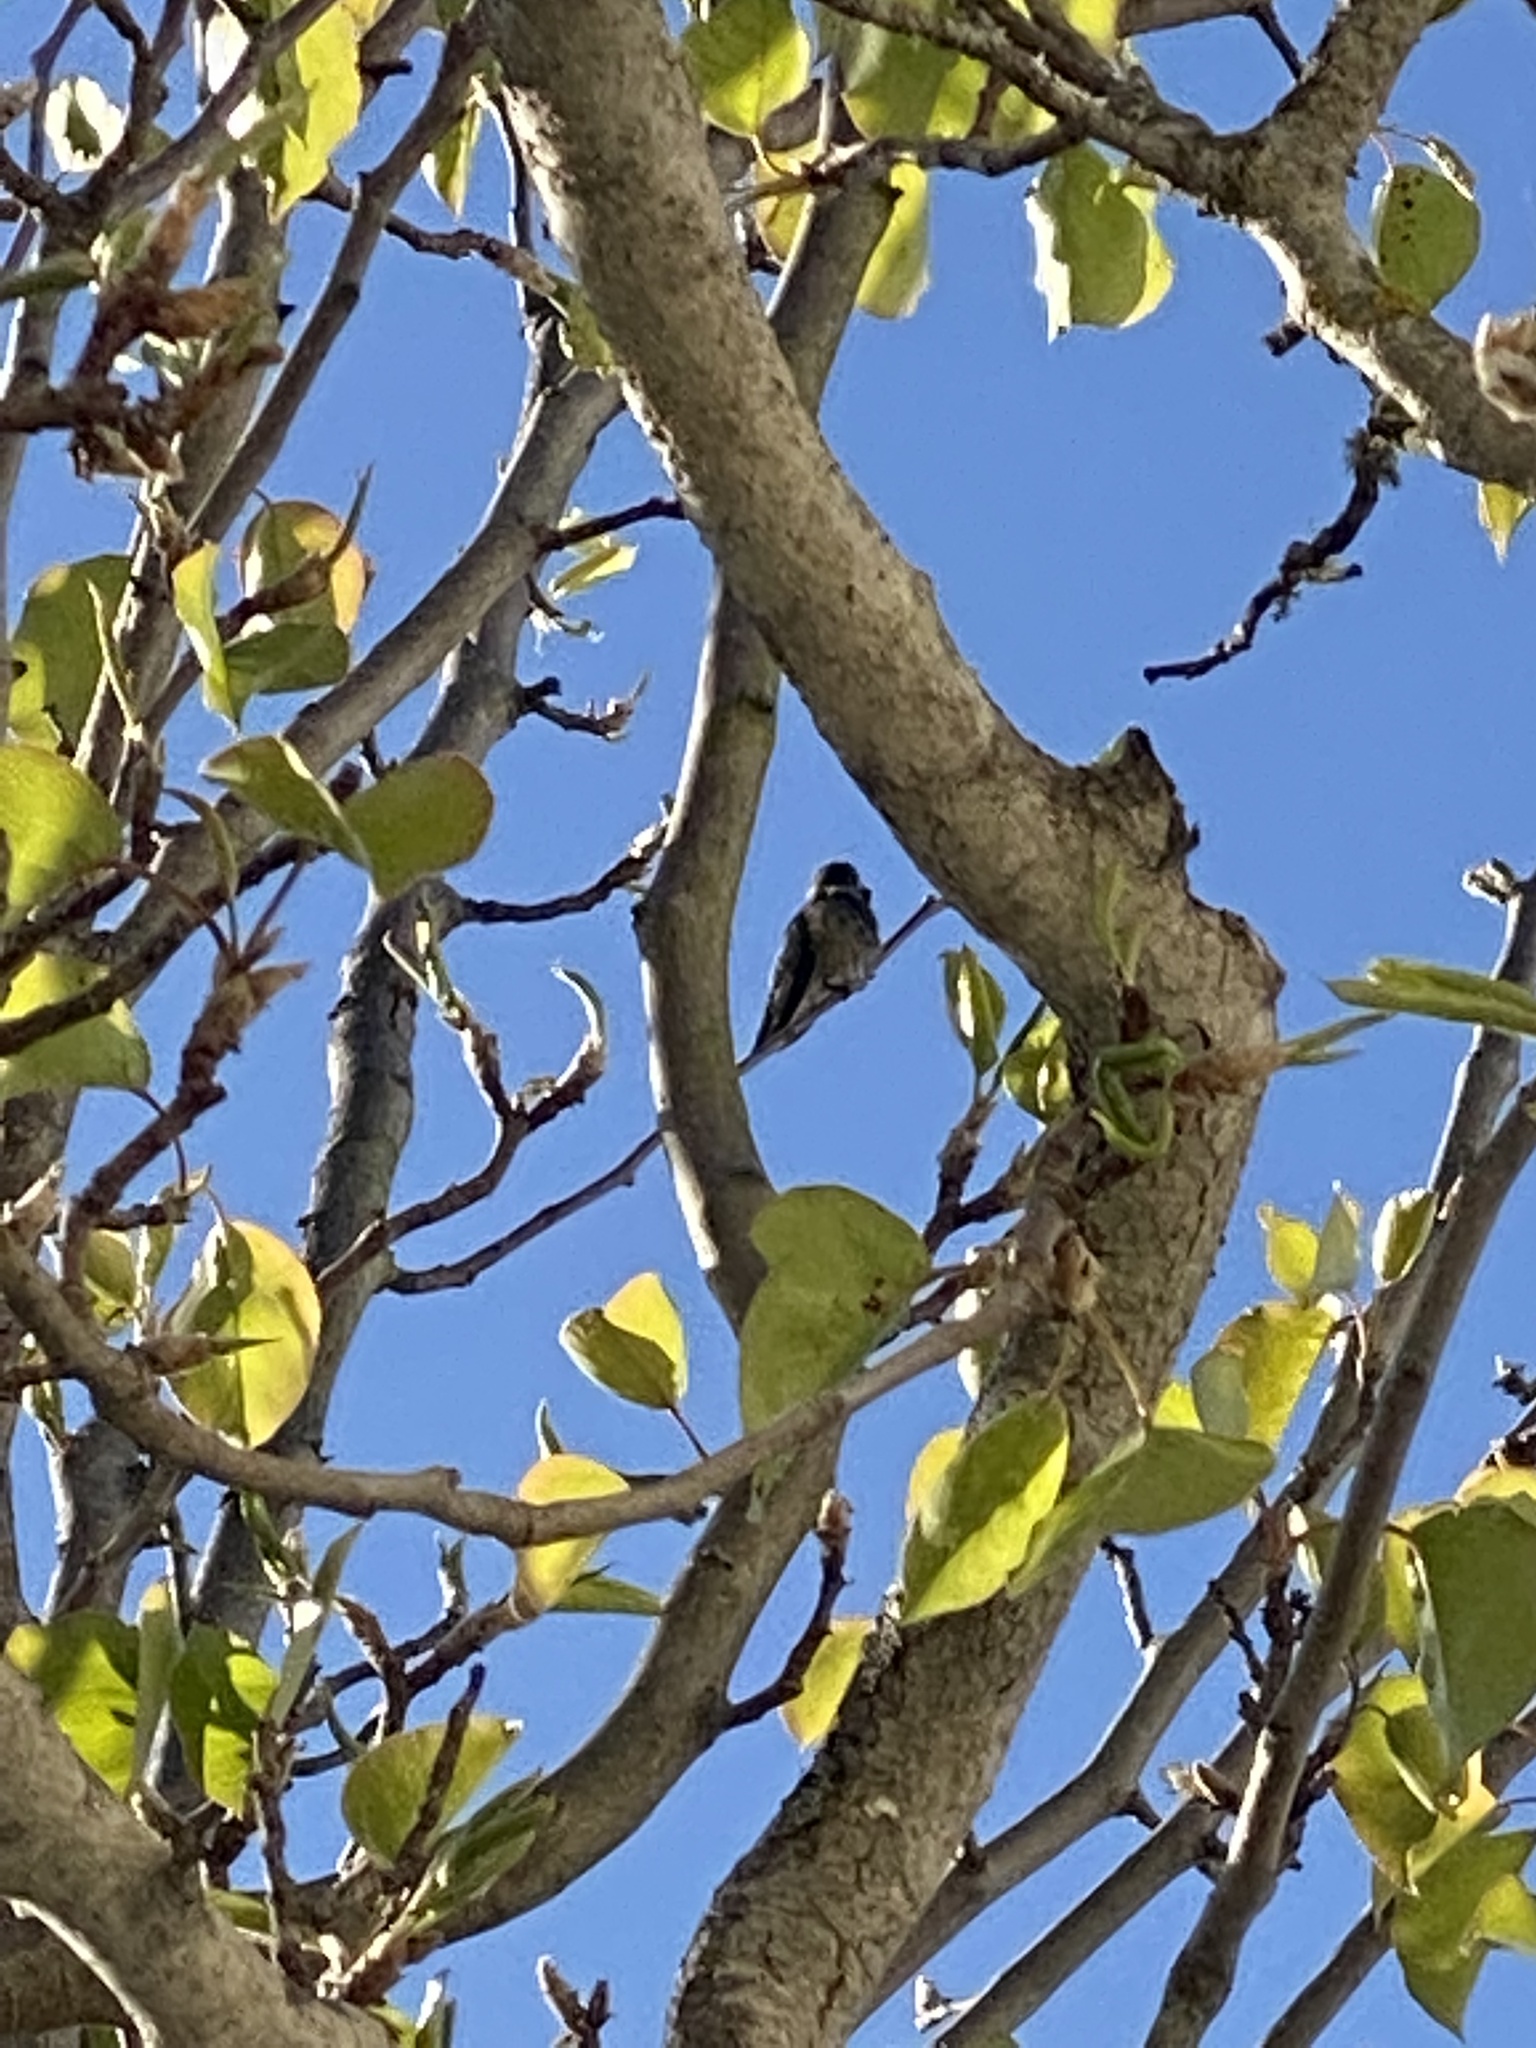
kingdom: Animalia
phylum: Chordata
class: Aves
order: Apodiformes
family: Trochilidae
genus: Calypte
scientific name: Calypte anna
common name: Anna's hummingbird
